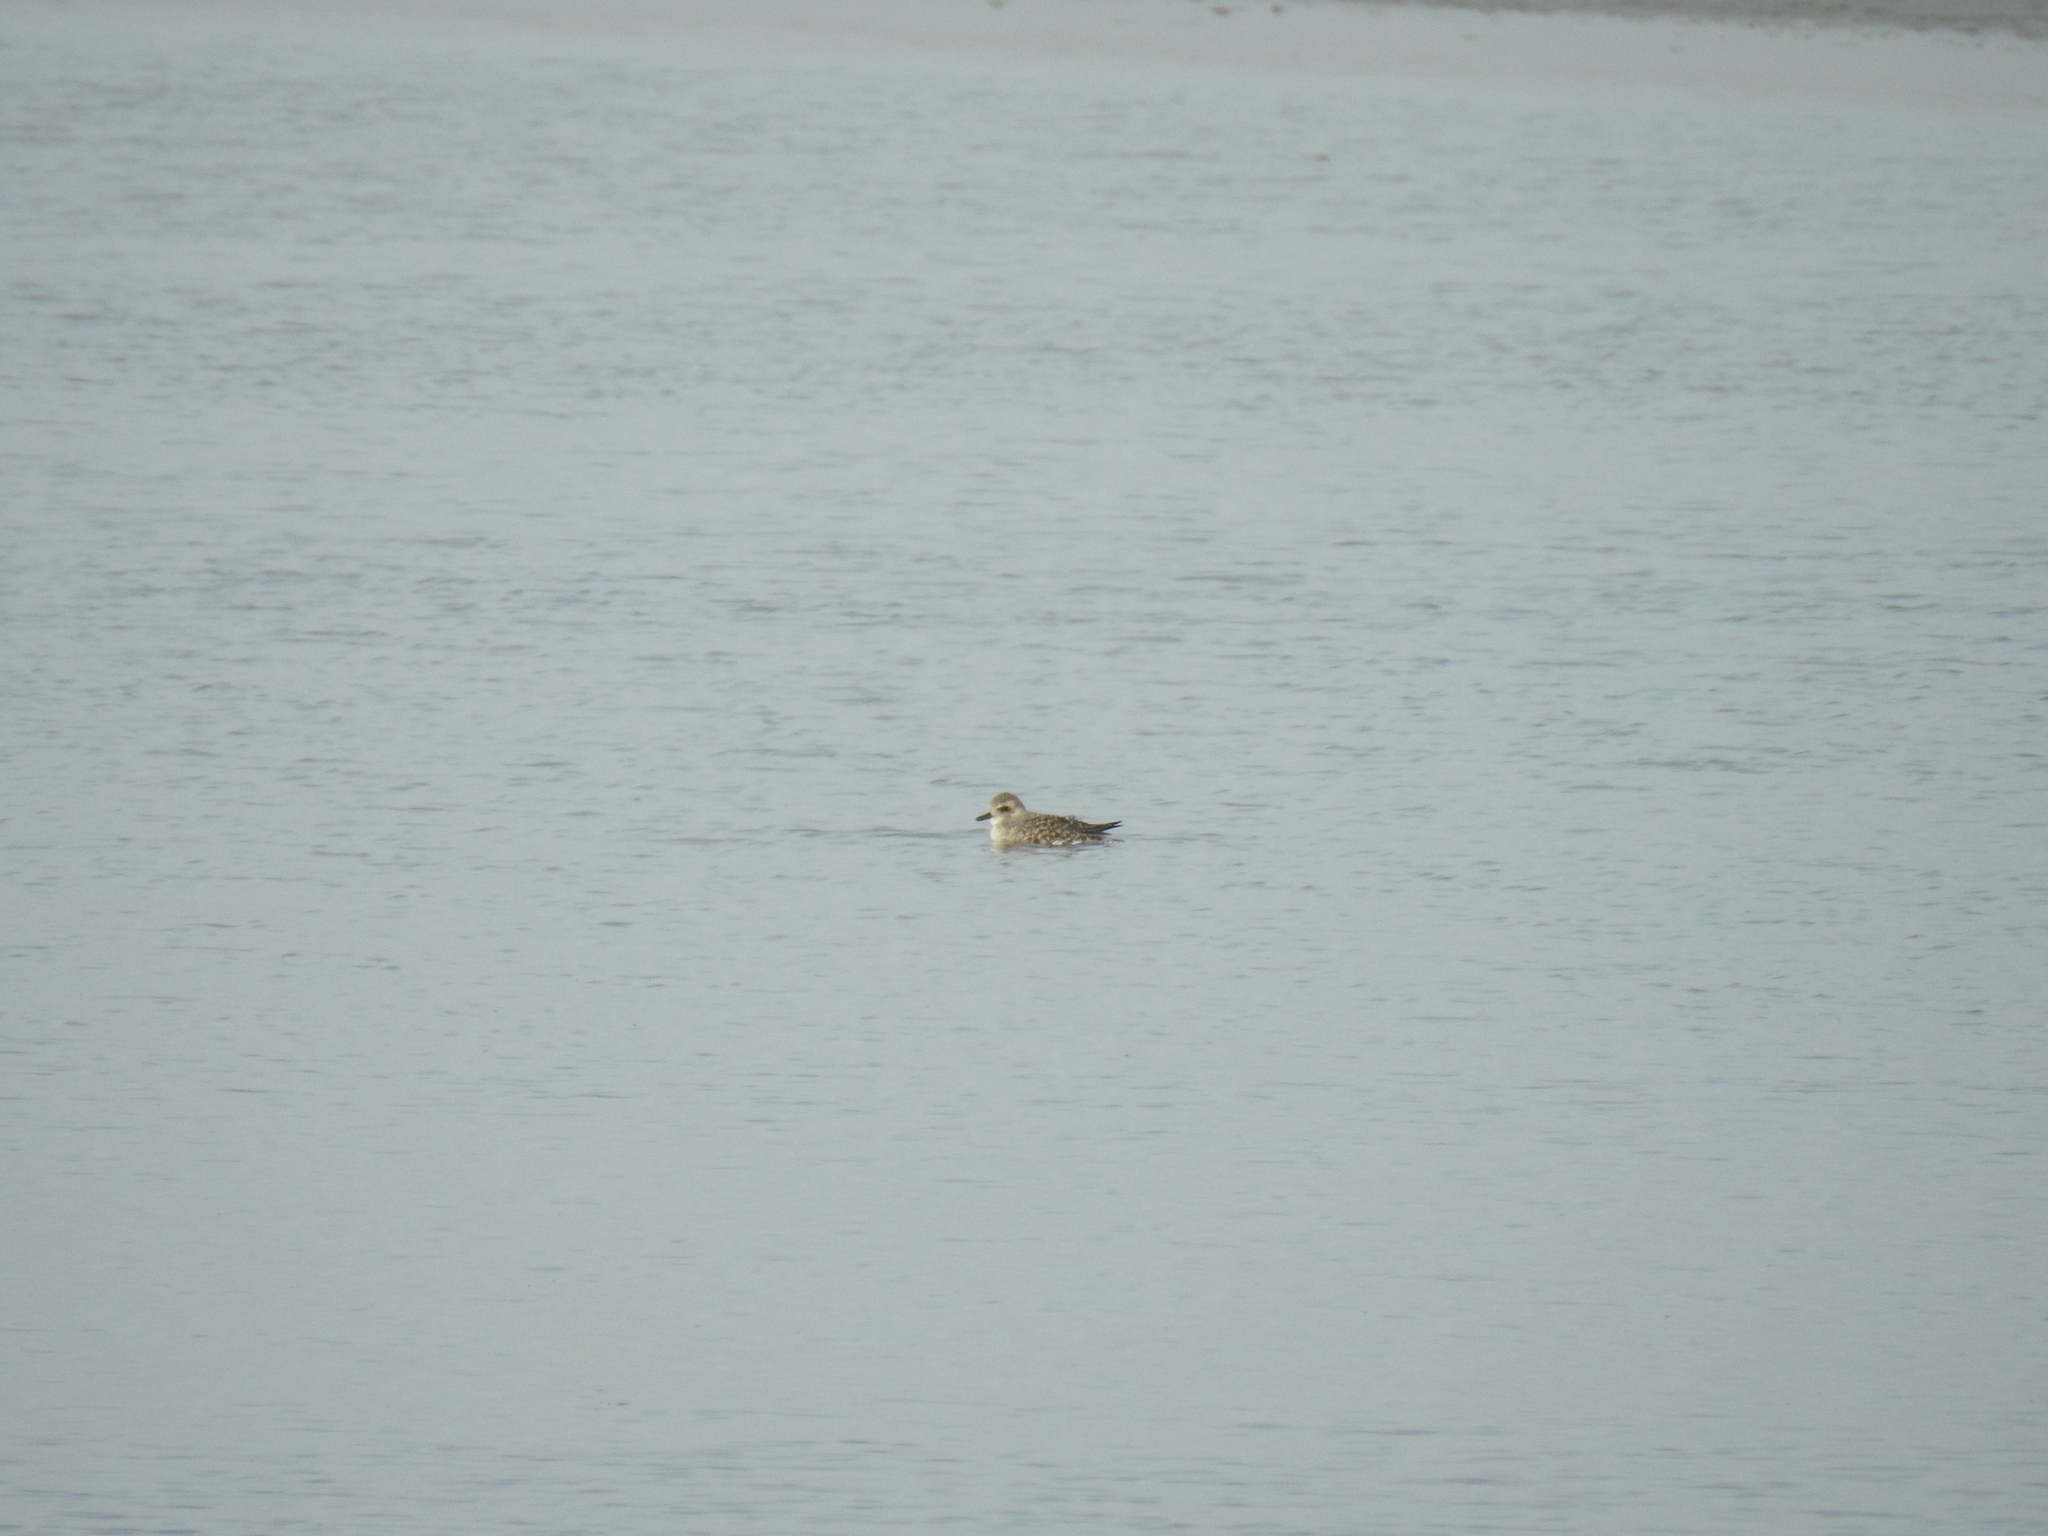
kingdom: Animalia
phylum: Chordata
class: Aves
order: Charadriiformes
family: Charadriidae
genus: Pluvialis
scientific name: Pluvialis squatarola
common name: Grey plover
